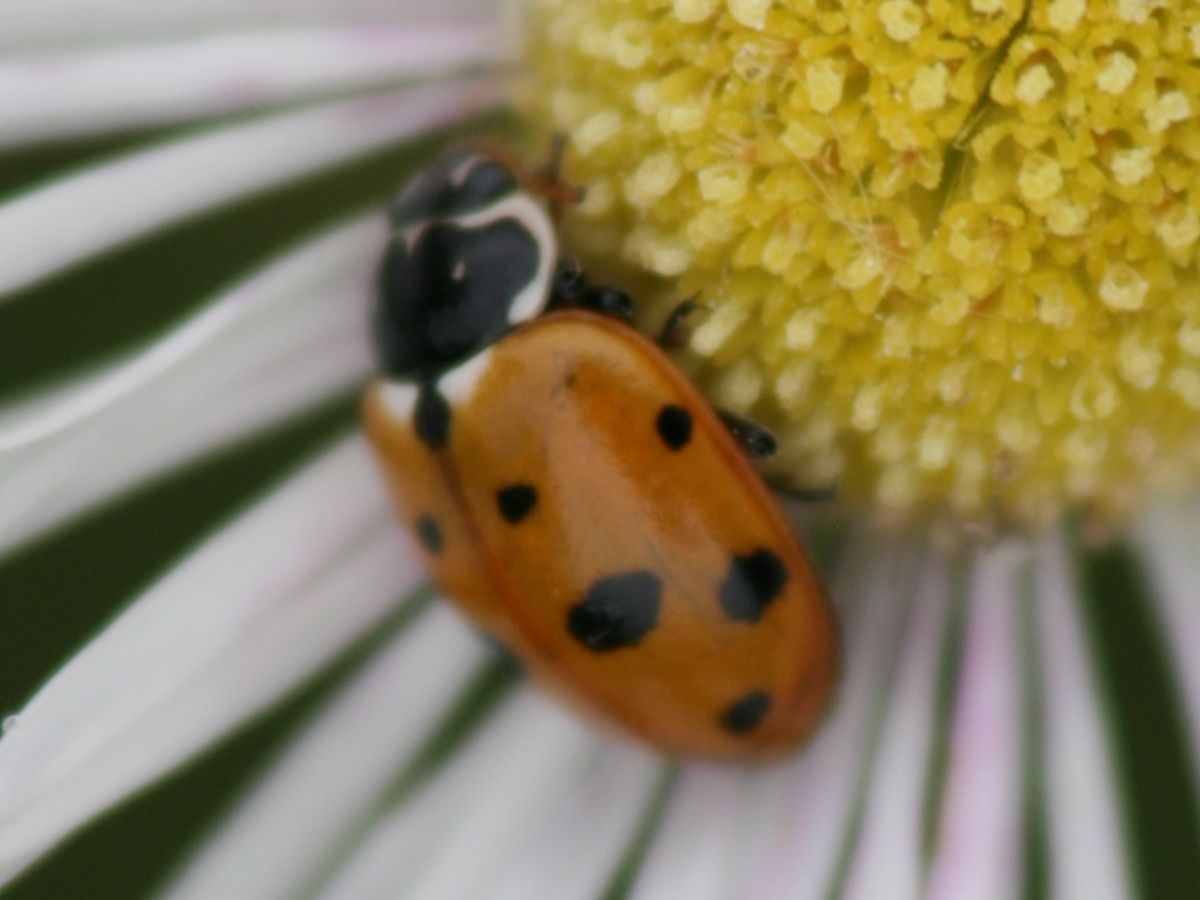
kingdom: Animalia
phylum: Arthropoda
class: Insecta
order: Coleoptera
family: Coccinellidae
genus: Hippodamia
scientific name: Hippodamia variegata
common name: Ladybird beetle
